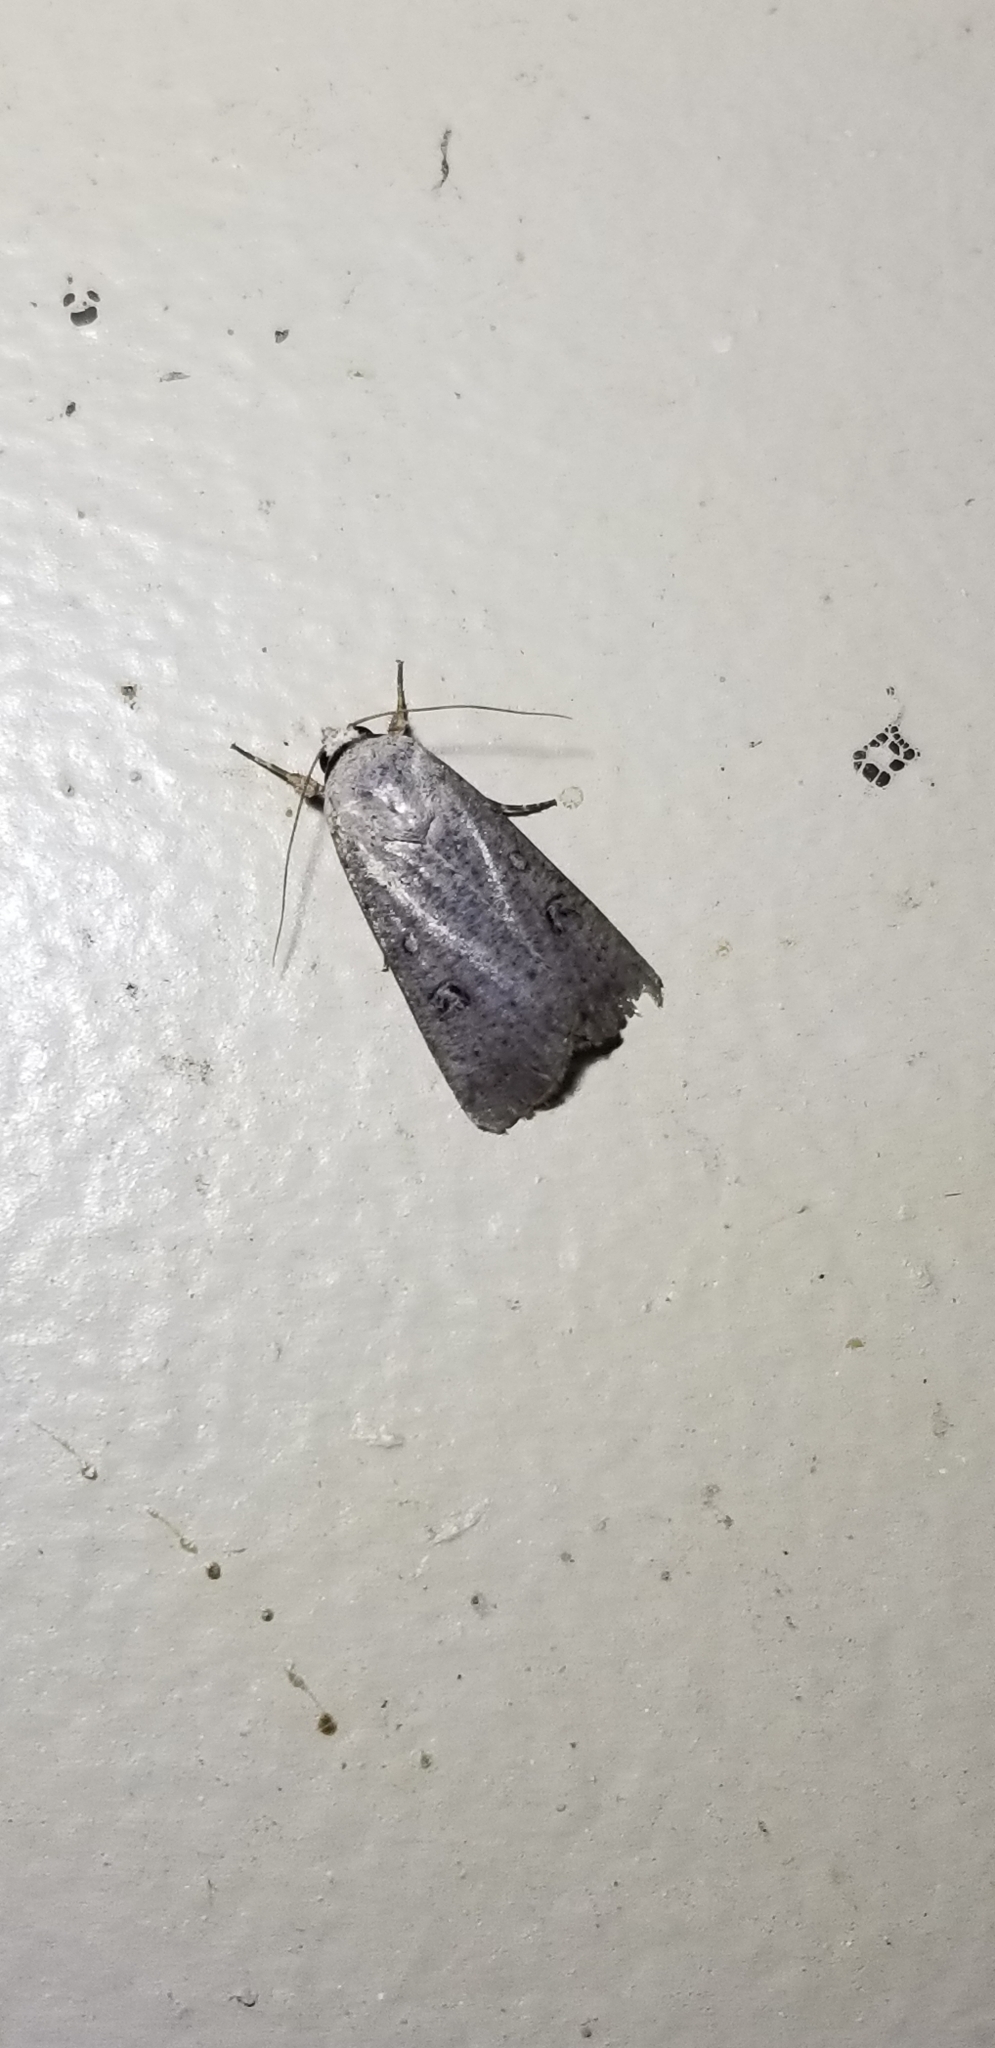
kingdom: Animalia
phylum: Arthropoda
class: Insecta
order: Lepidoptera
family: Noctuidae
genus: Anicla
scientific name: Anicla infecta
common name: Green cutworm
